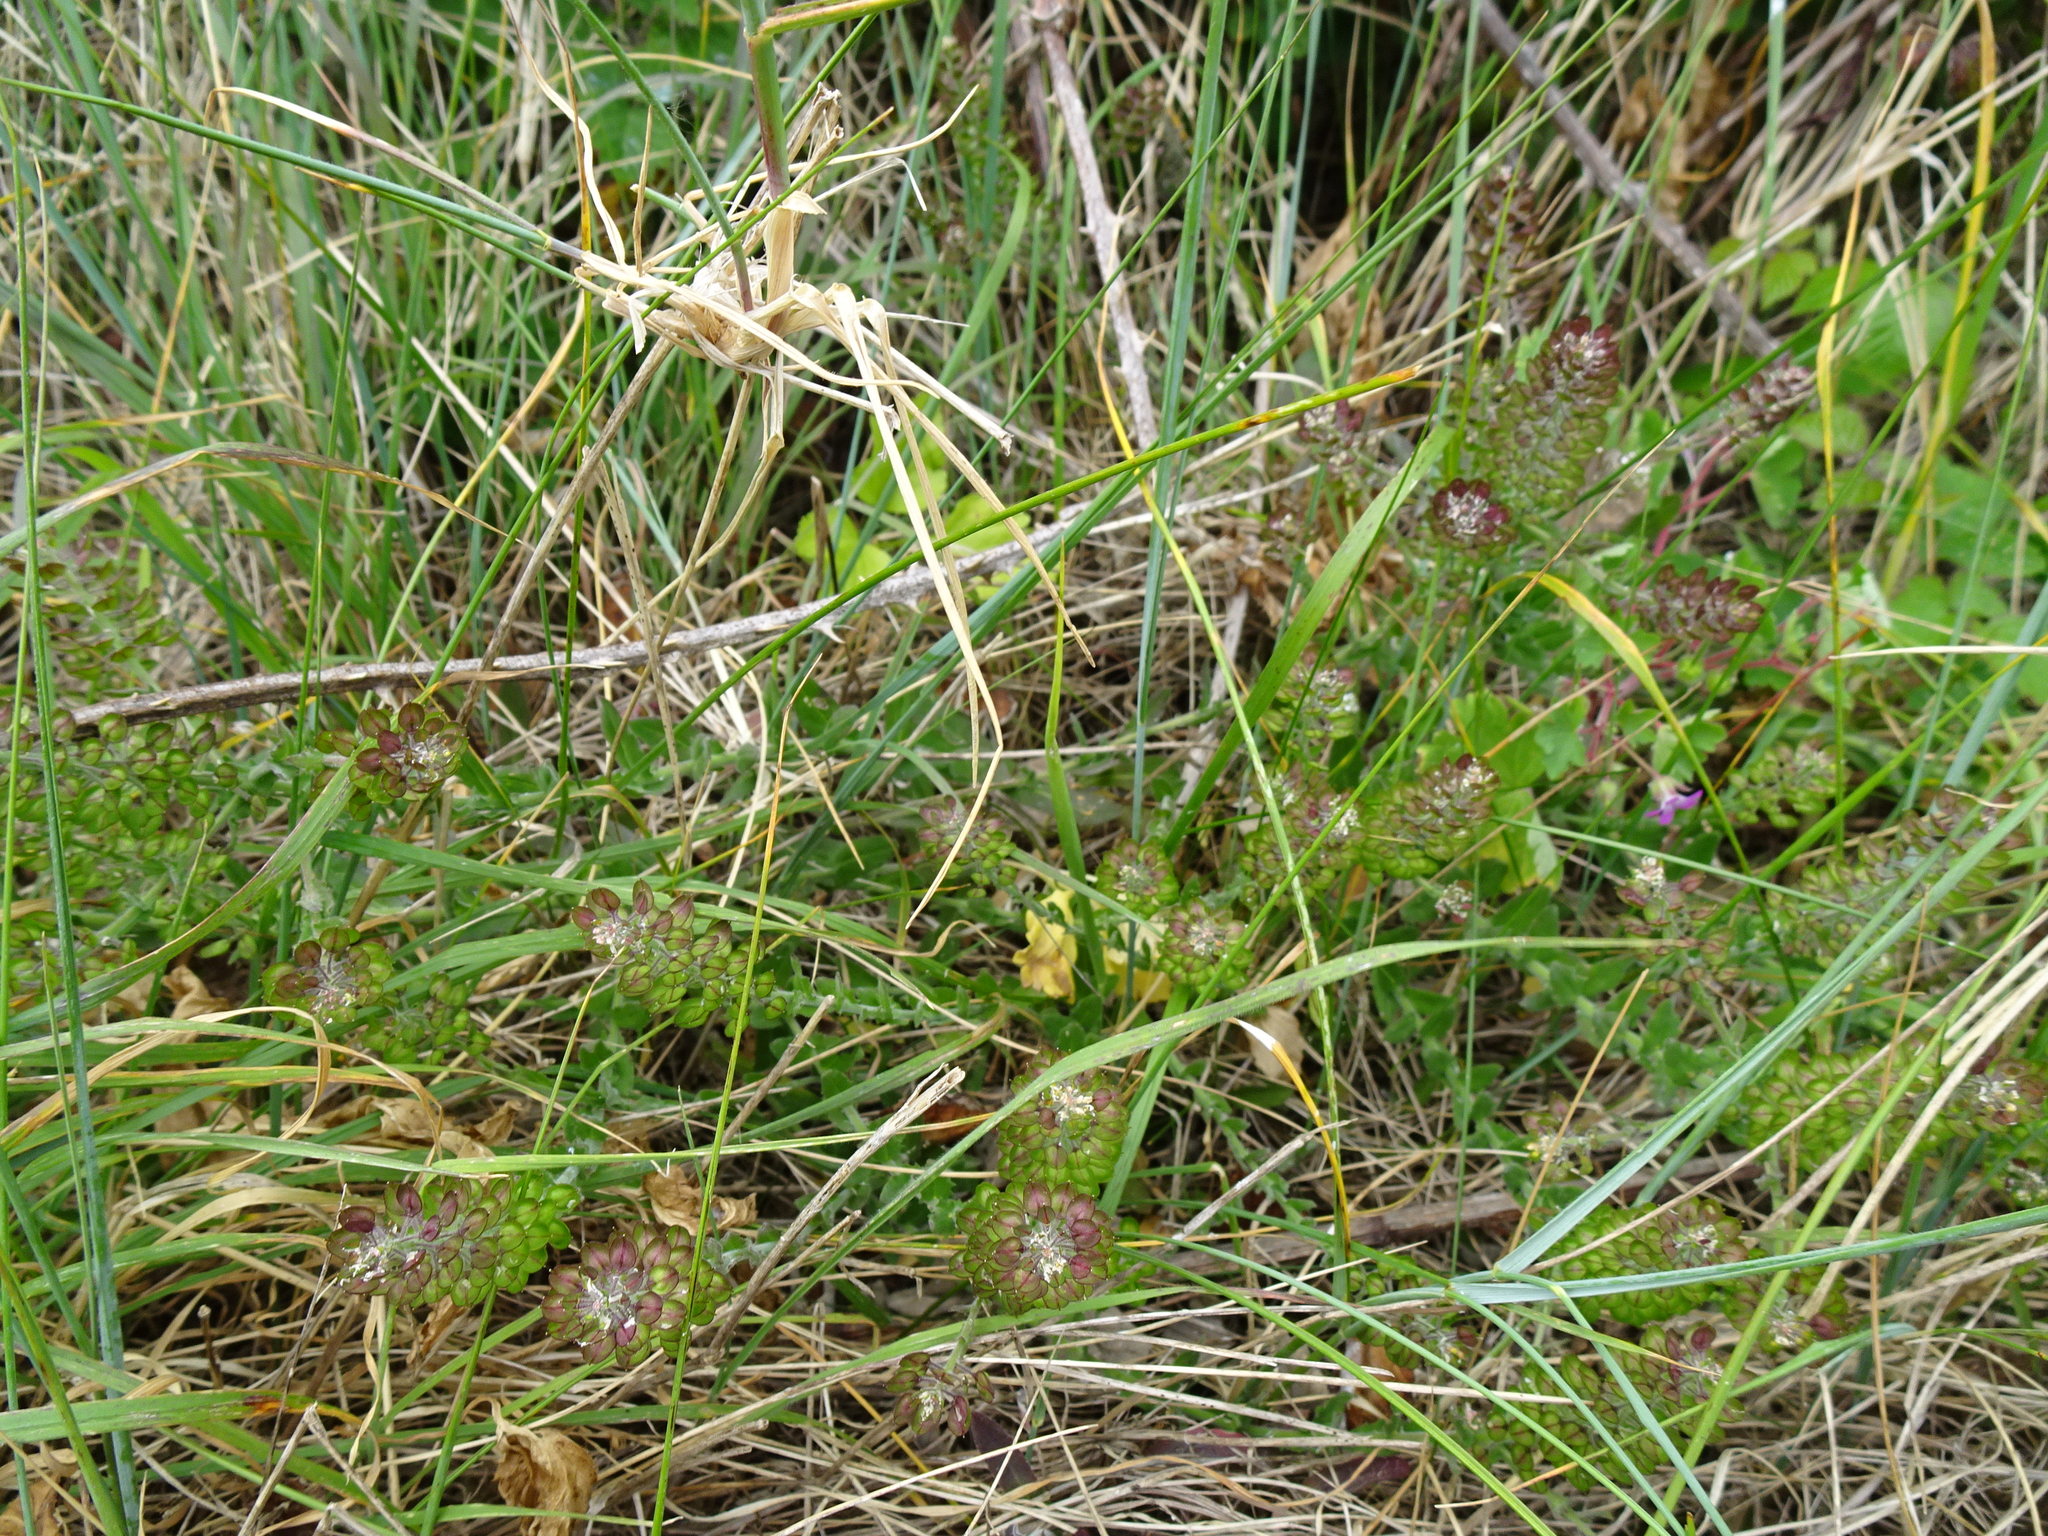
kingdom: Plantae
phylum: Tracheophyta
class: Magnoliopsida
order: Brassicales
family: Brassicaceae
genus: Lepidium
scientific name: Lepidium heterophyllum
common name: Smith's pepperwort
